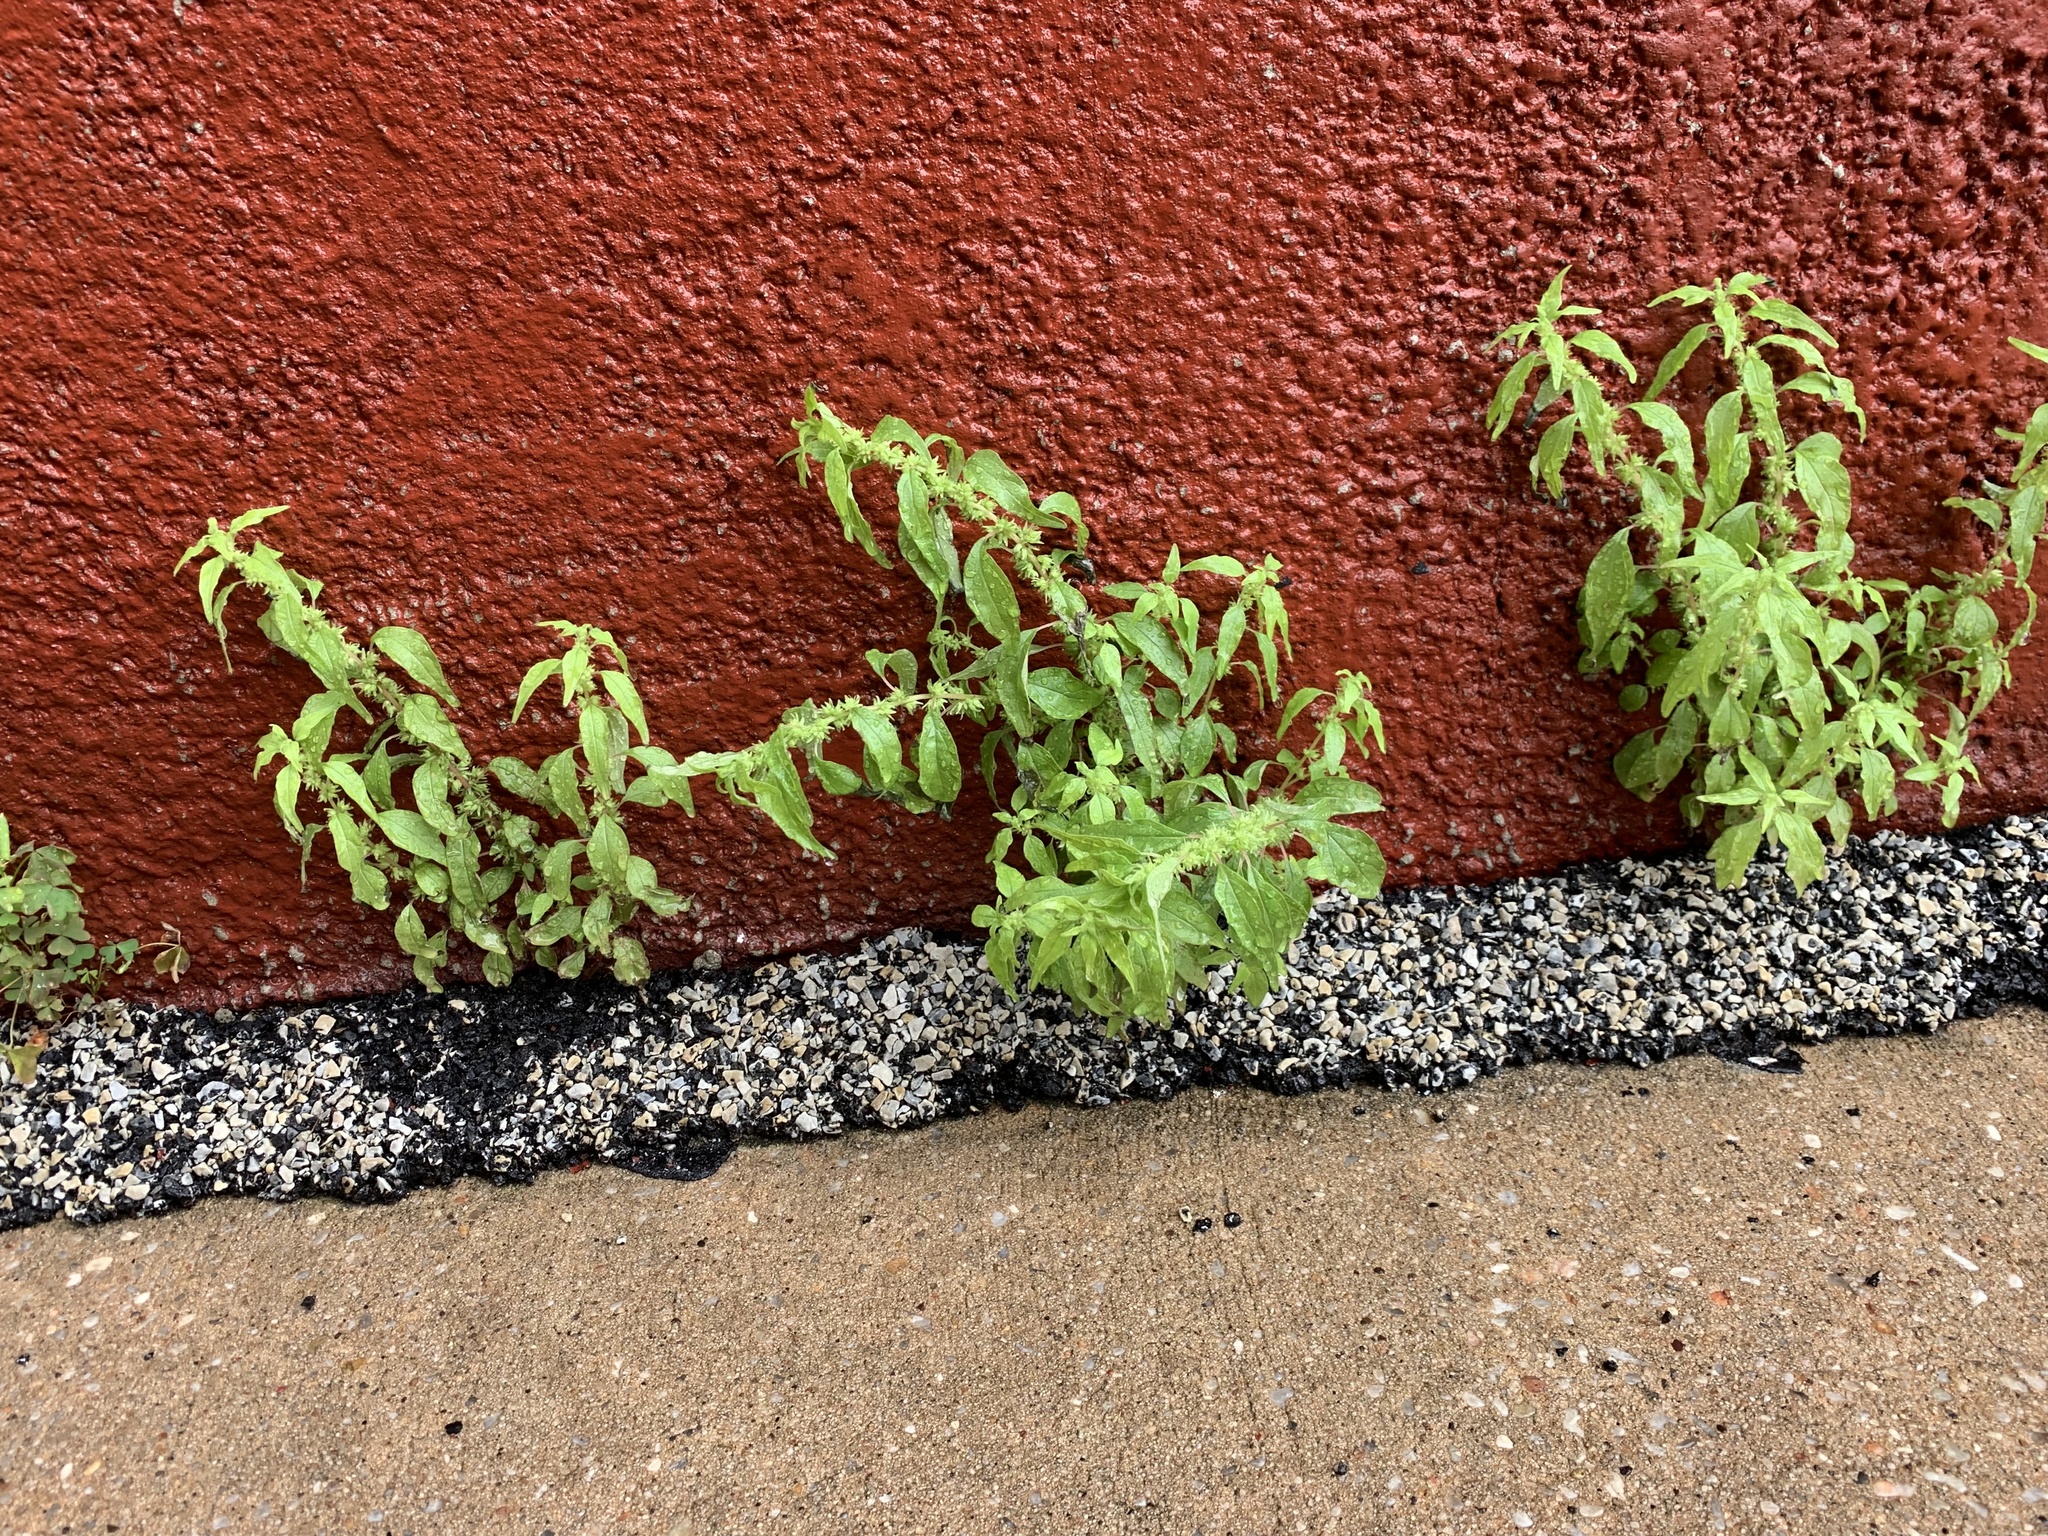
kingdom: Plantae
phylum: Tracheophyta
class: Magnoliopsida
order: Rosales
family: Urticaceae
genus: Parietaria
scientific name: Parietaria pensylvanica
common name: Pennsylvania pellitory
